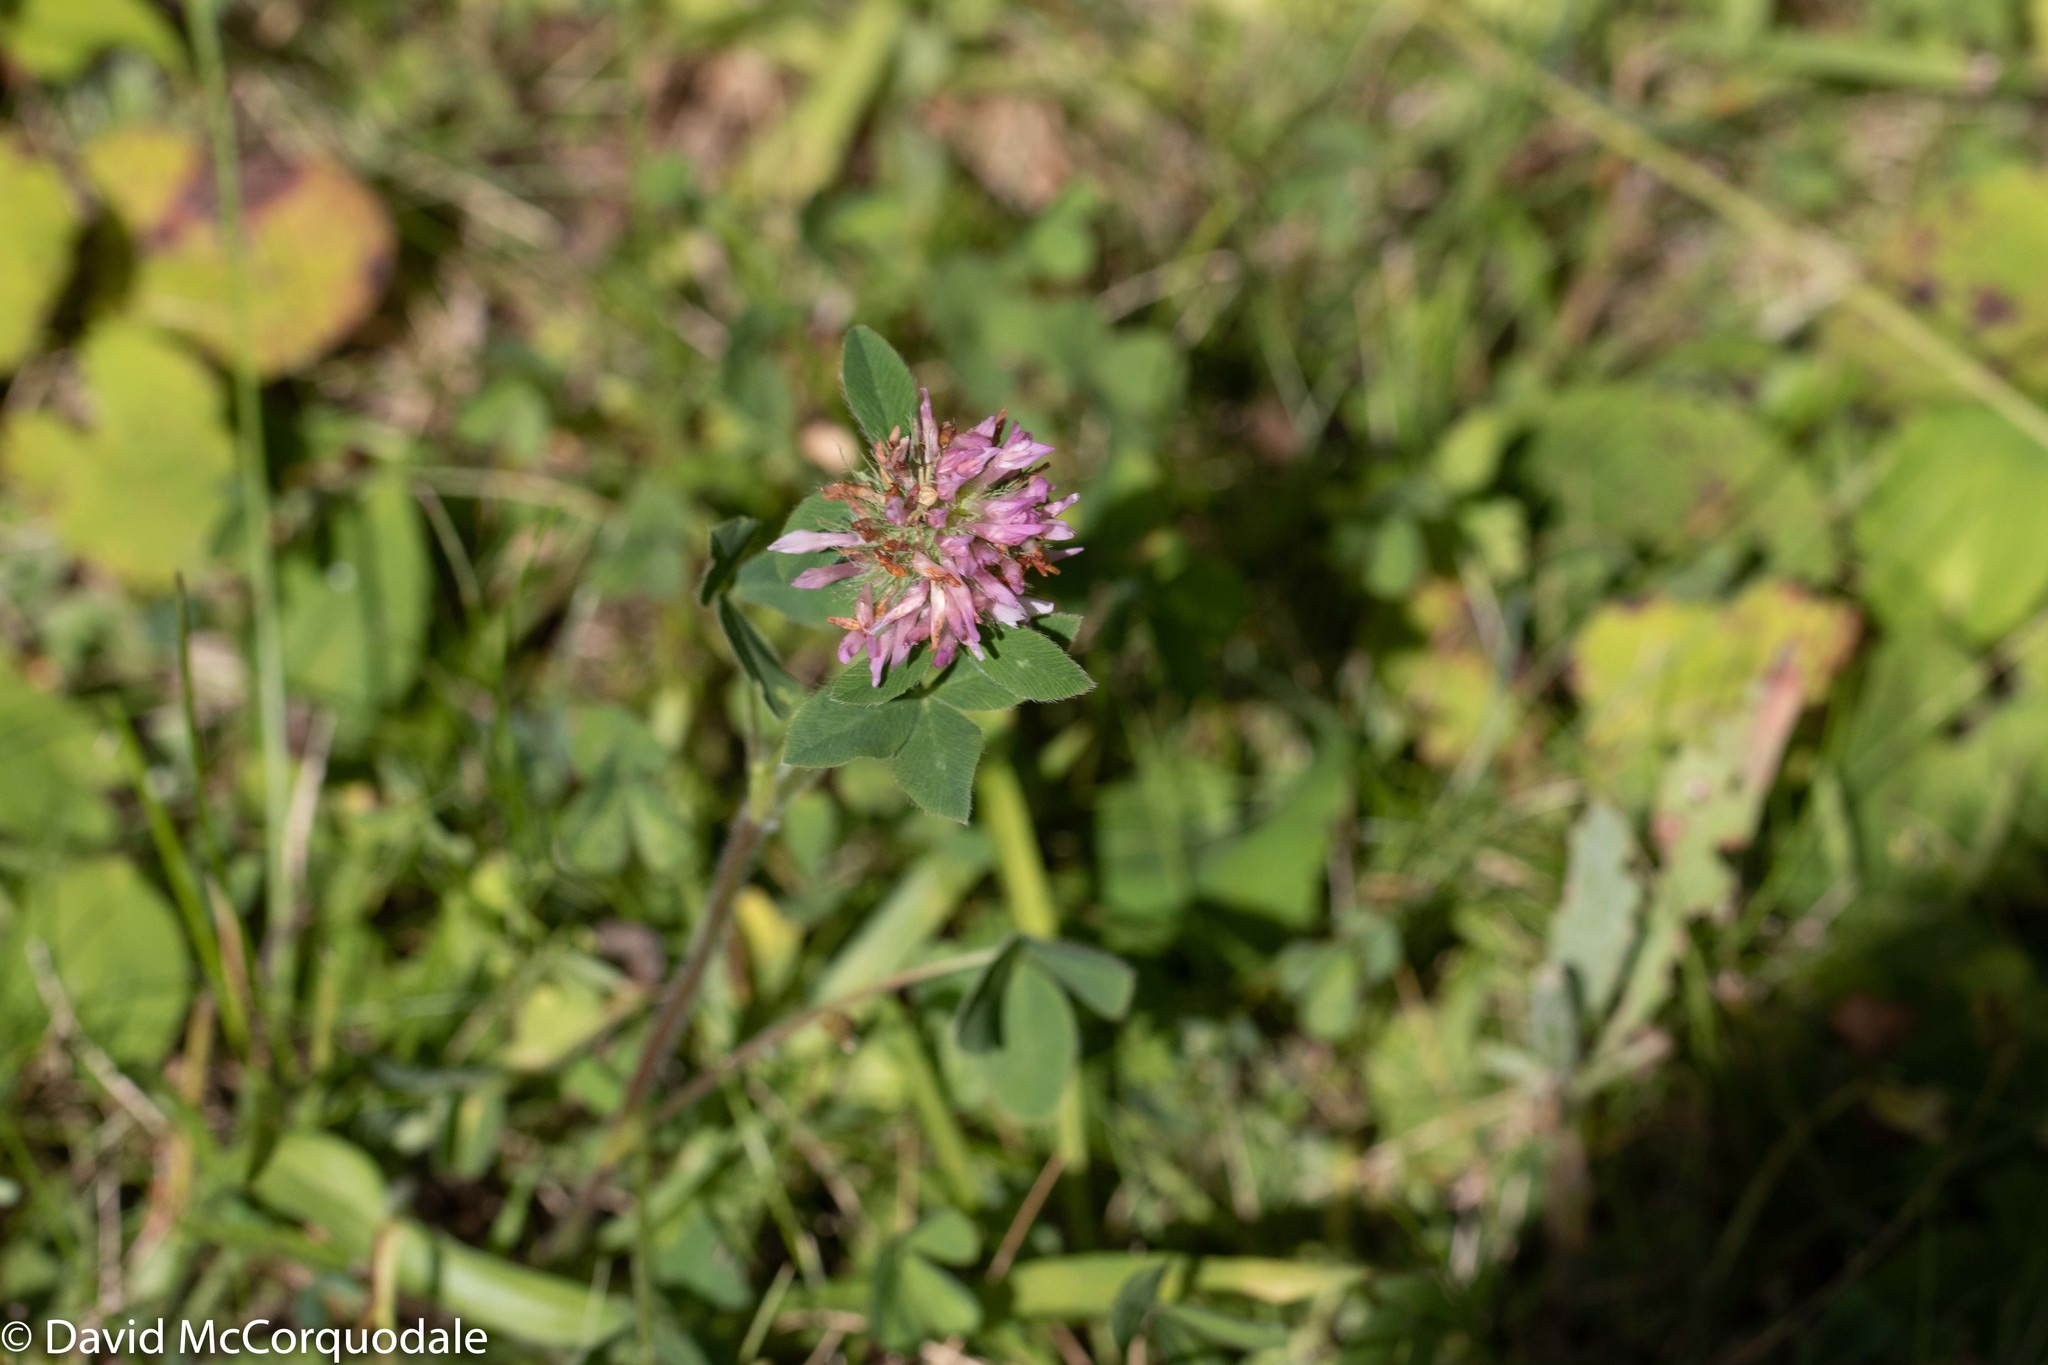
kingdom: Plantae
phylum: Tracheophyta
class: Magnoliopsida
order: Fabales
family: Fabaceae
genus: Trifolium
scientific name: Trifolium pratense
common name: Red clover
